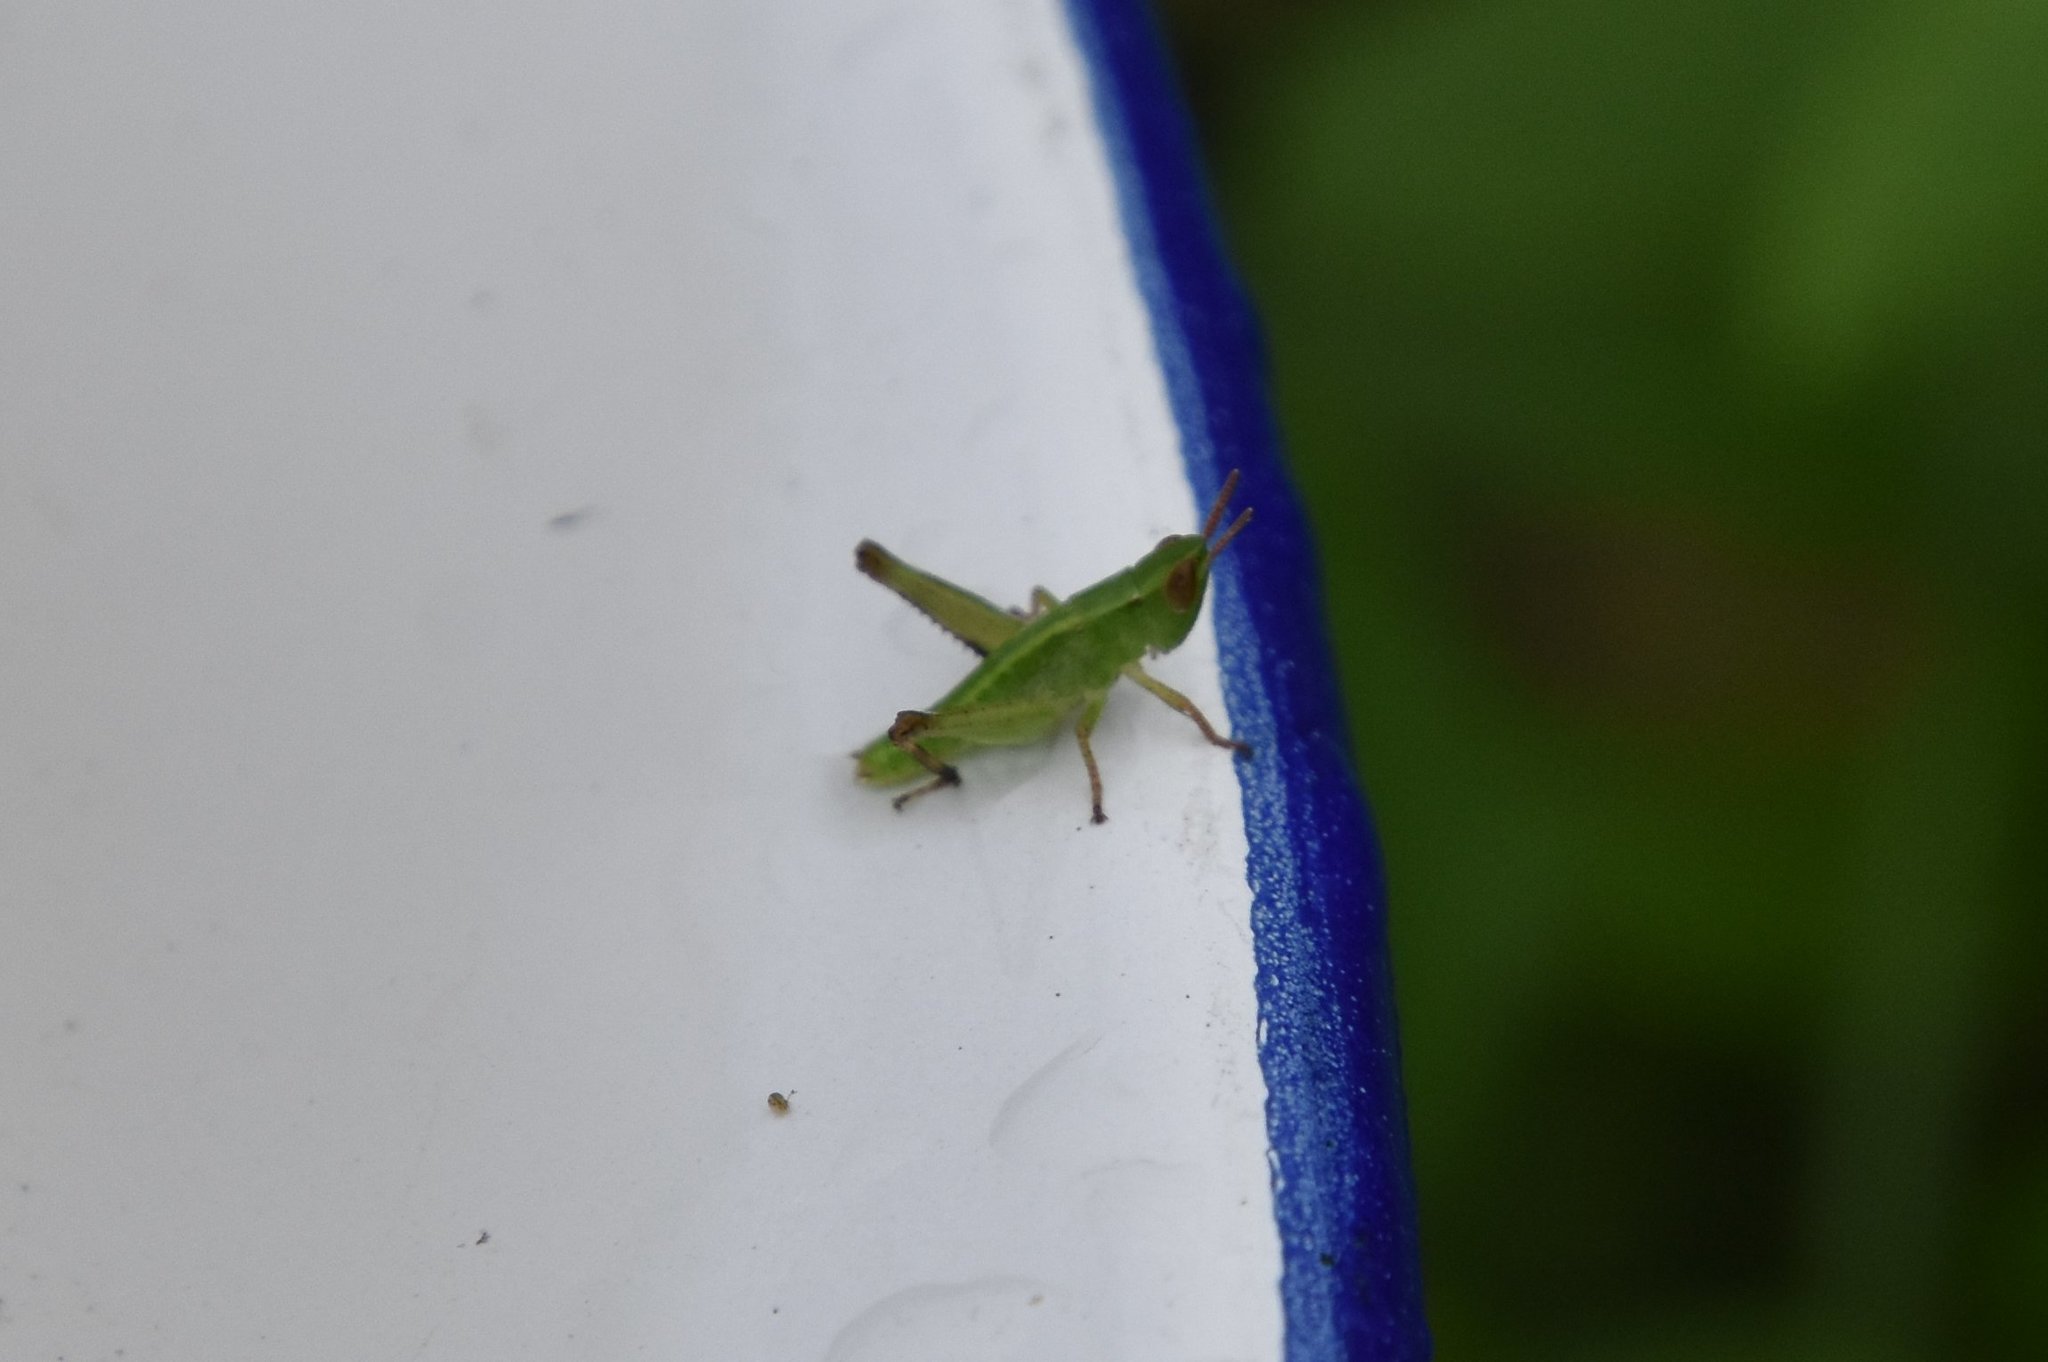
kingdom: Animalia
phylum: Arthropoda
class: Insecta
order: Orthoptera
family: Acrididae
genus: Dichromorpha
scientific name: Dichromorpha viridis
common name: Short-winged green grasshopper
